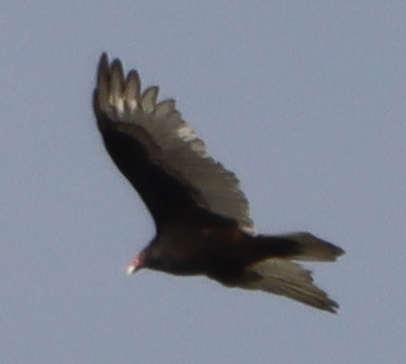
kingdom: Animalia
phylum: Chordata
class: Aves
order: Accipitriformes
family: Cathartidae
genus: Cathartes
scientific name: Cathartes aura
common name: Turkey vulture
